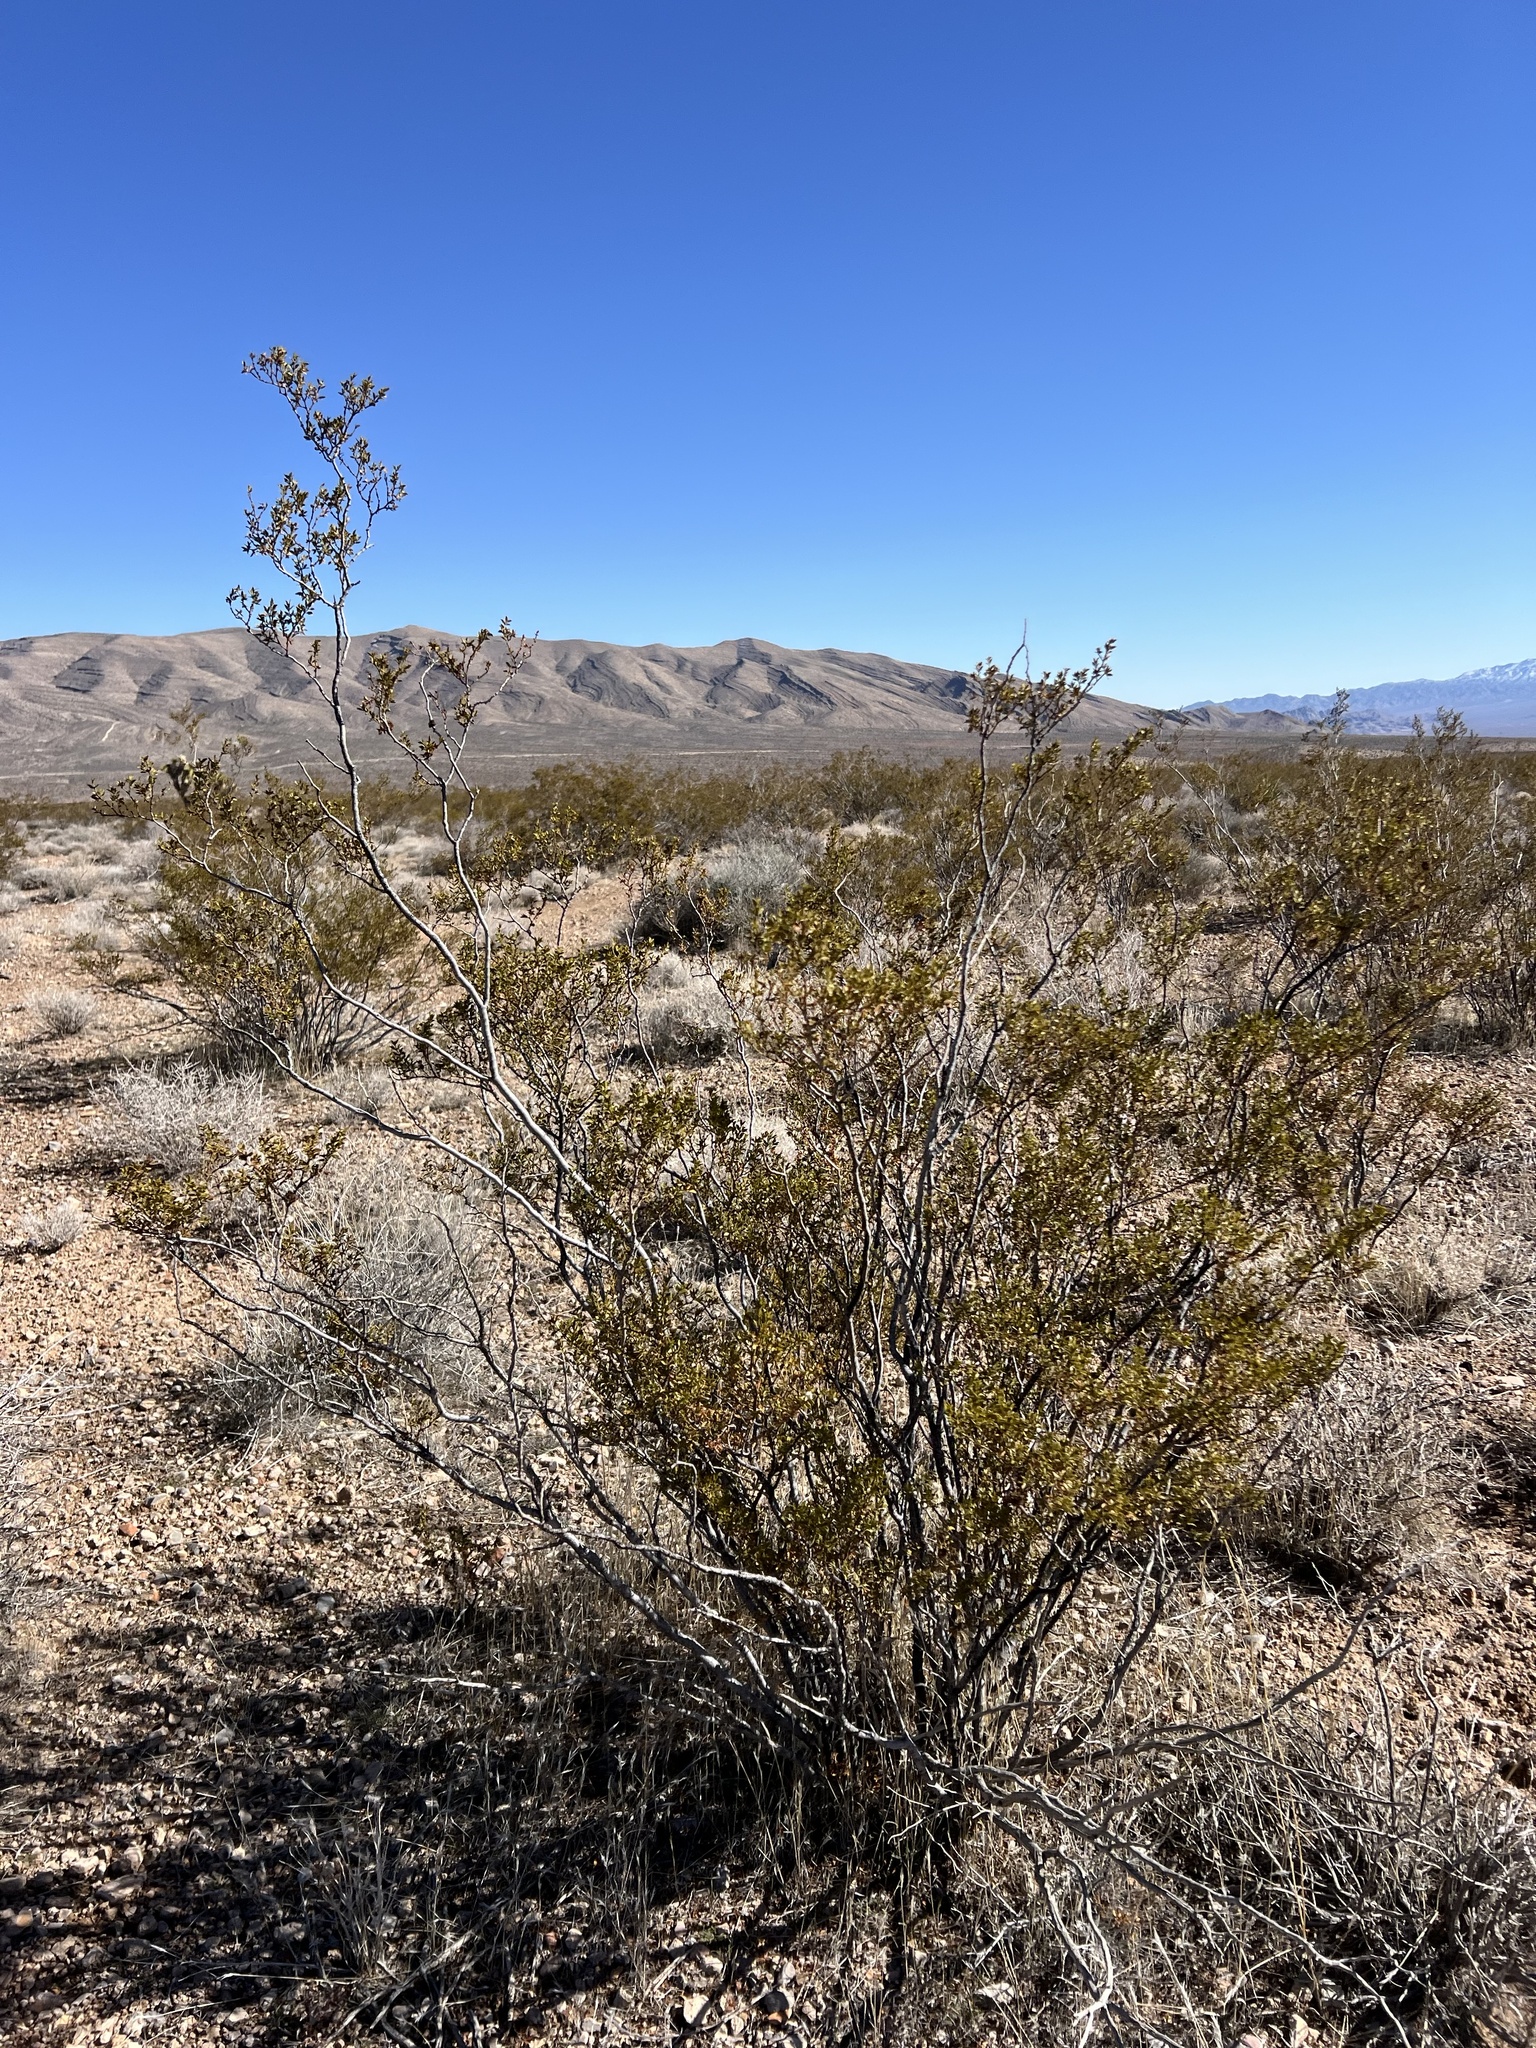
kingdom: Plantae
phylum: Tracheophyta
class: Magnoliopsida
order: Zygophyllales
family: Zygophyllaceae
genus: Larrea
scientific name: Larrea tridentata
